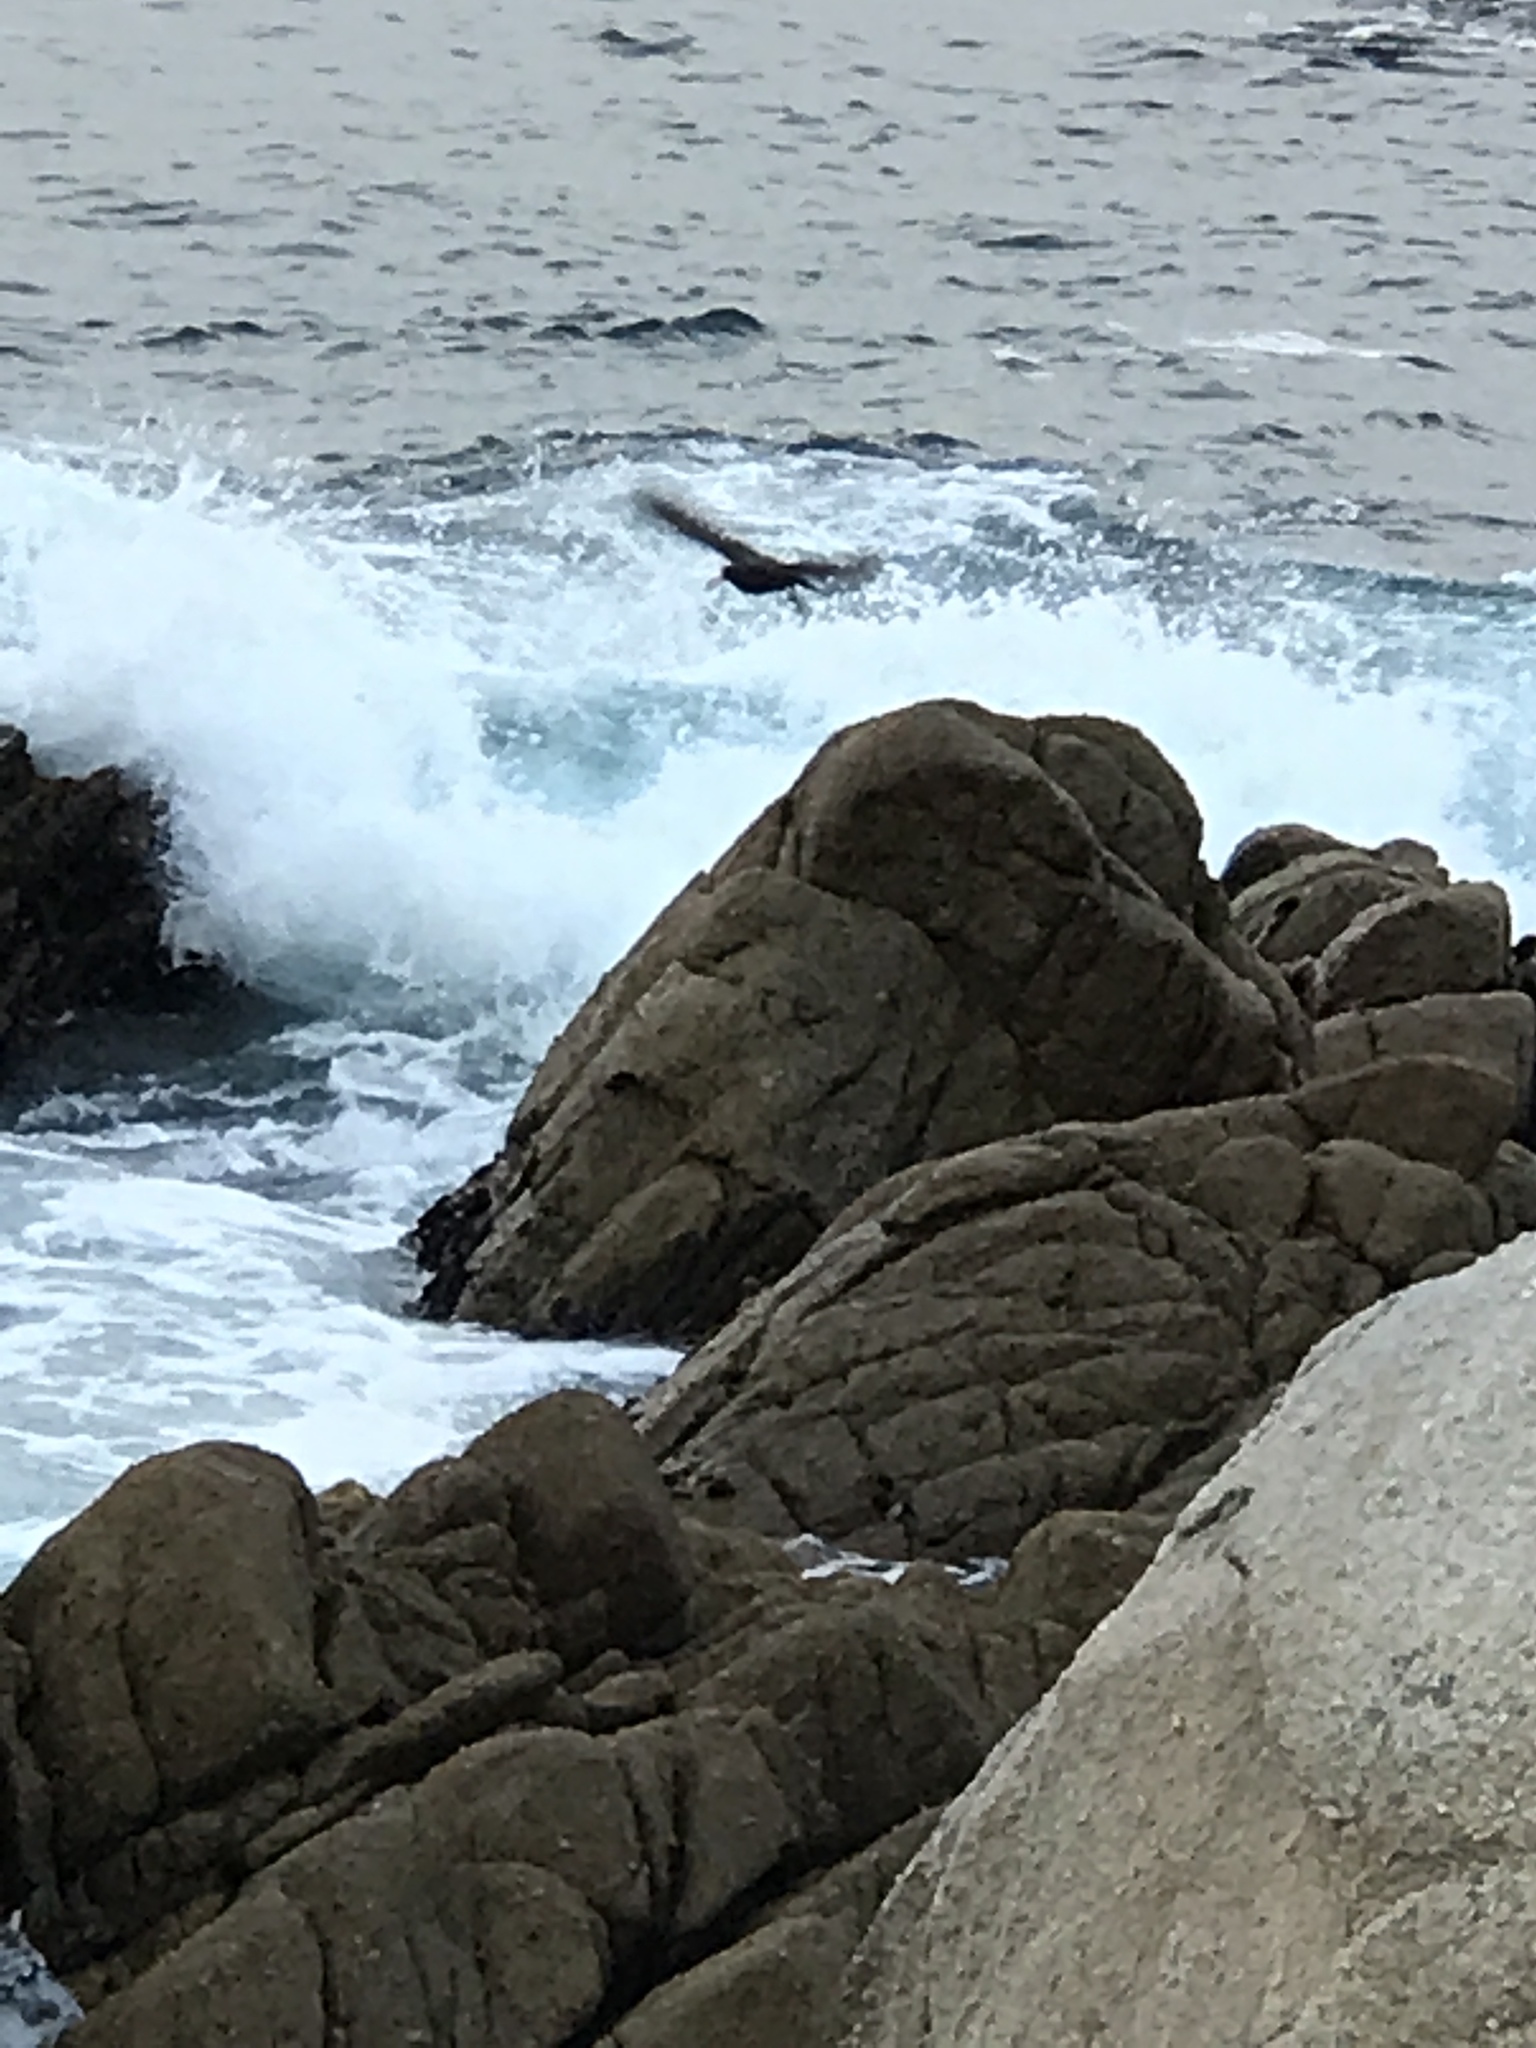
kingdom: Animalia
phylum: Chordata
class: Aves
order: Charadriiformes
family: Haematopodidae
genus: Haematopus
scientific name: Haematopus bachmani
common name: Black oystercatcher
